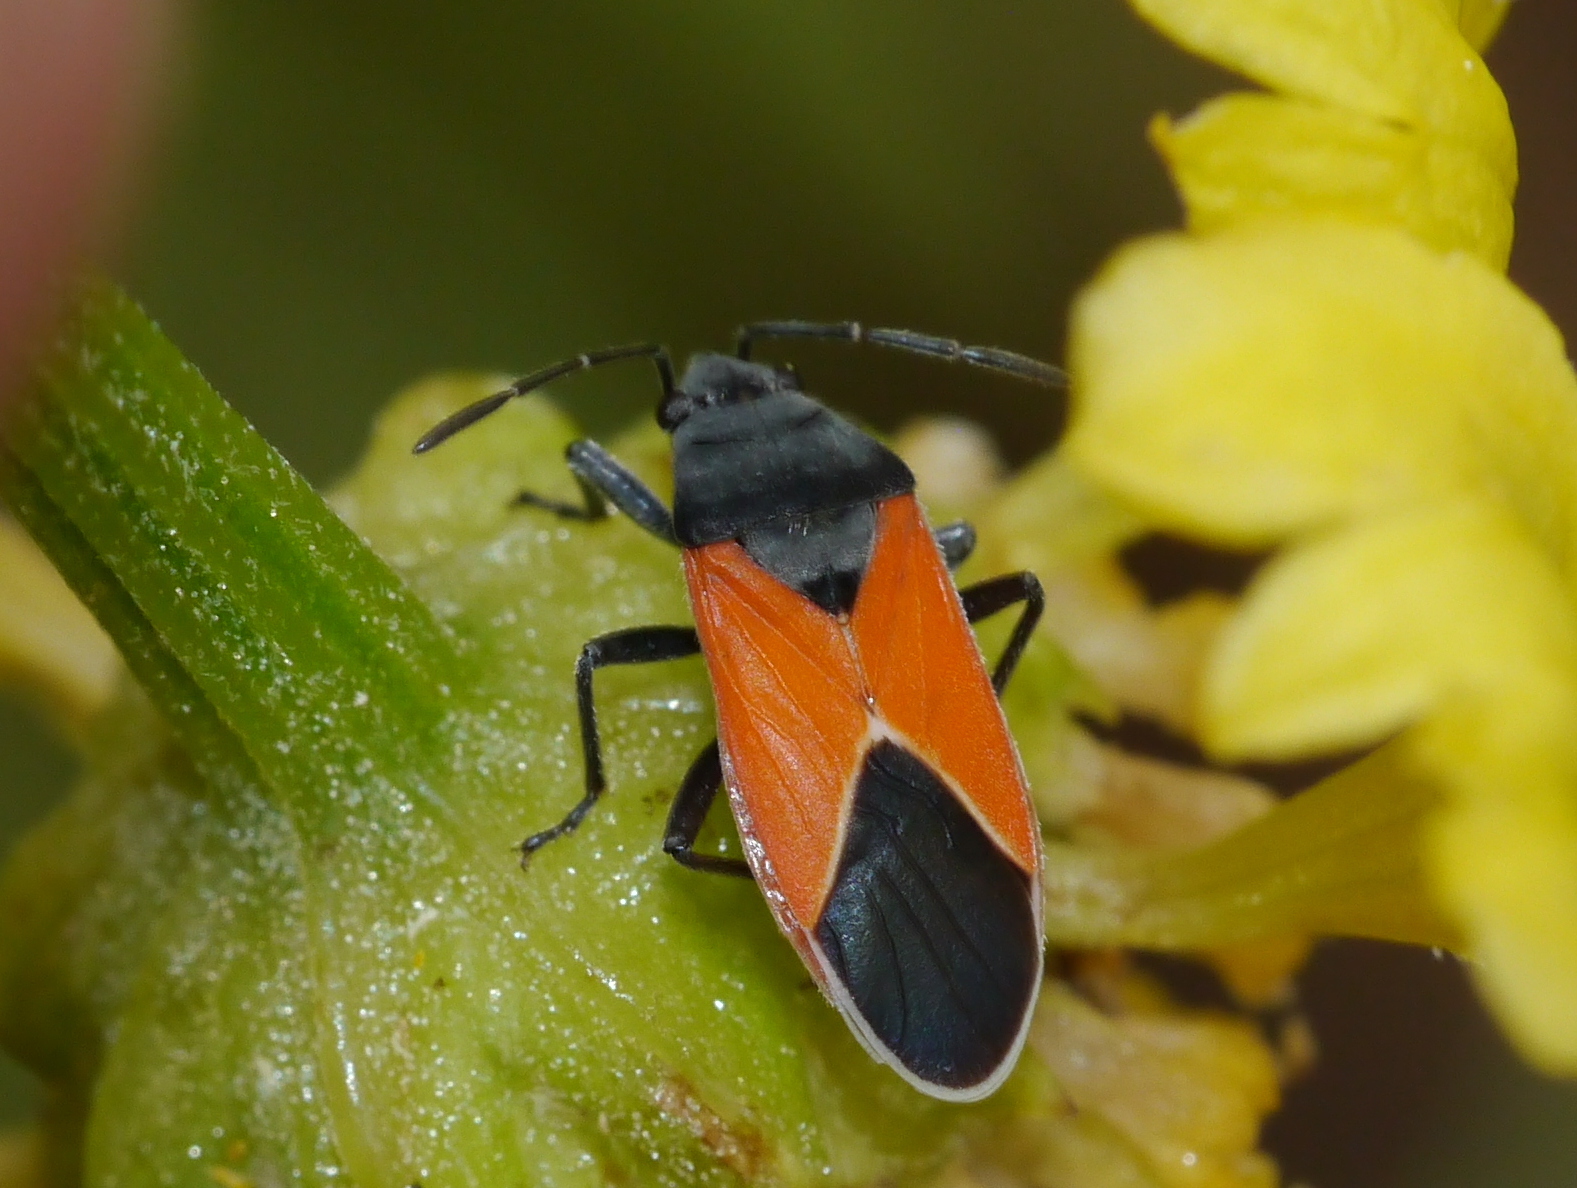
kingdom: Animalia
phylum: Arthropoda
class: Insecta
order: Hemiptera
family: Lygaeidae
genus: Melanopleurus
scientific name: Melanopleurus belfragei
